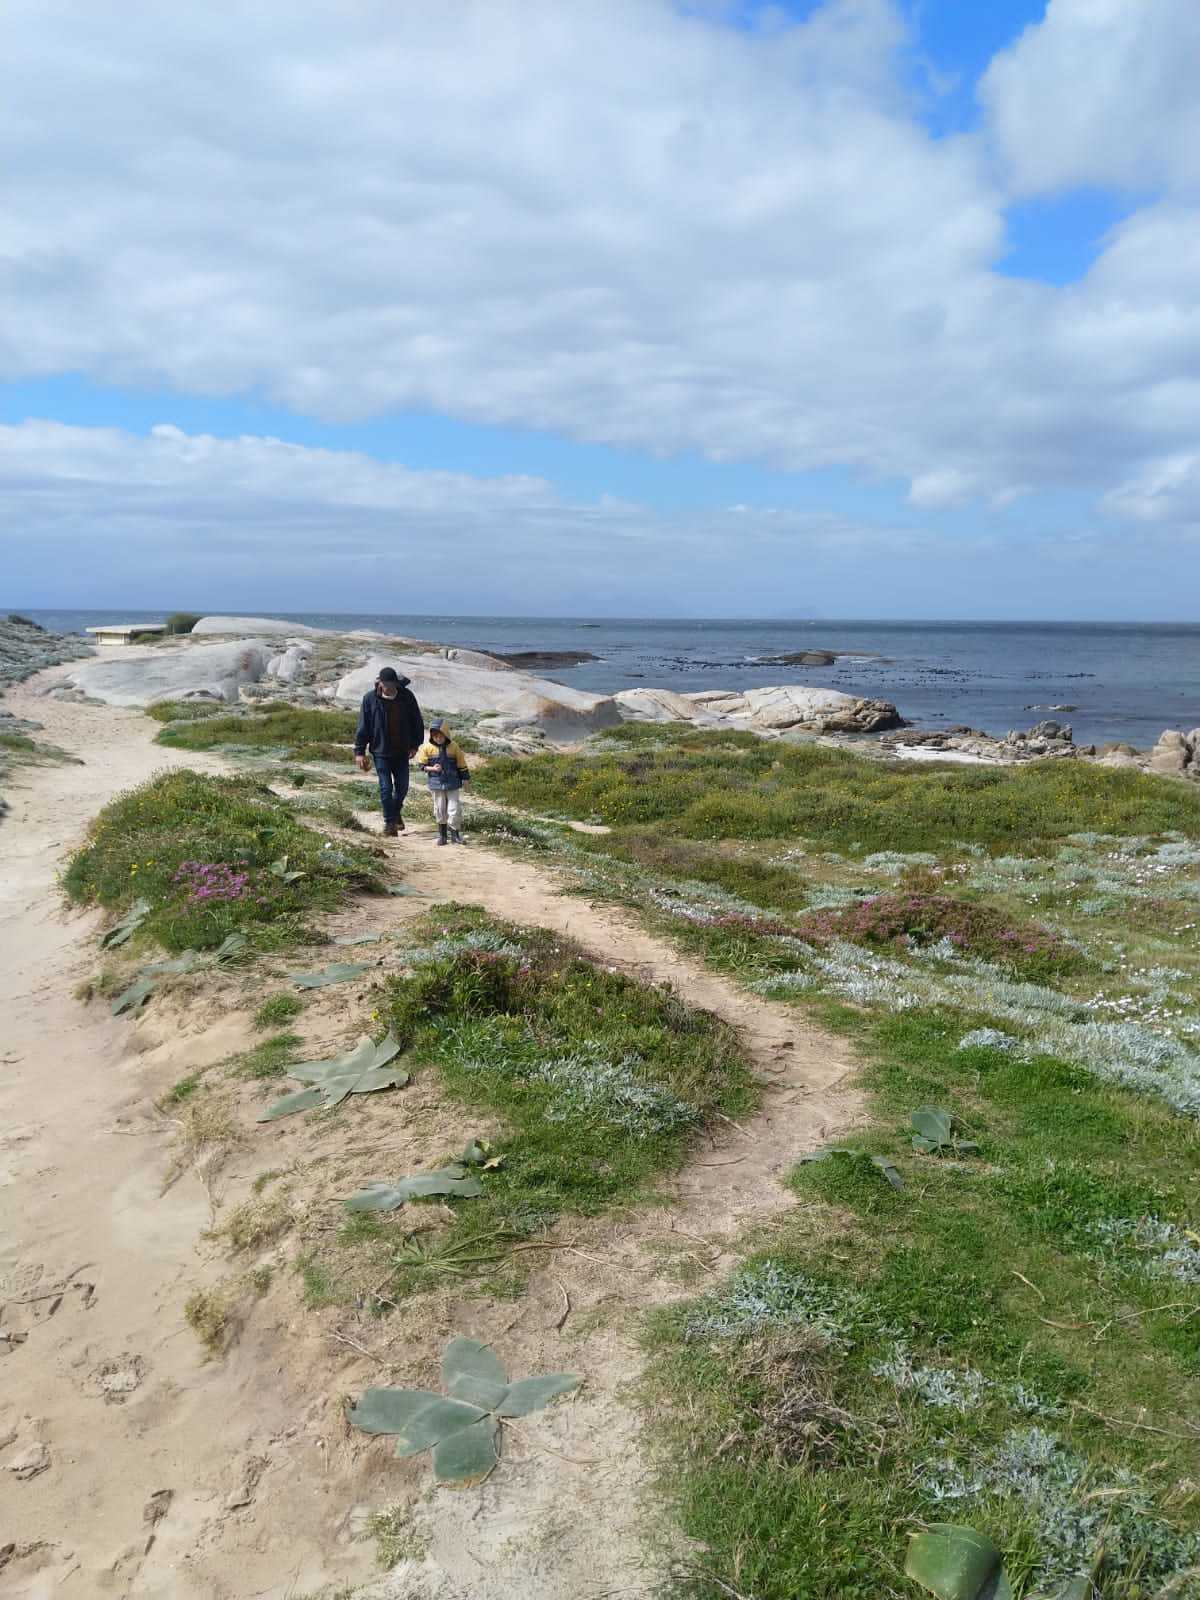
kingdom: Plantae
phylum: Tracheophyta
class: Liliopsida
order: Asparagales
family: Amaryllidaceae
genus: Brunsvigia
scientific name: Brunsvigia orientalis
